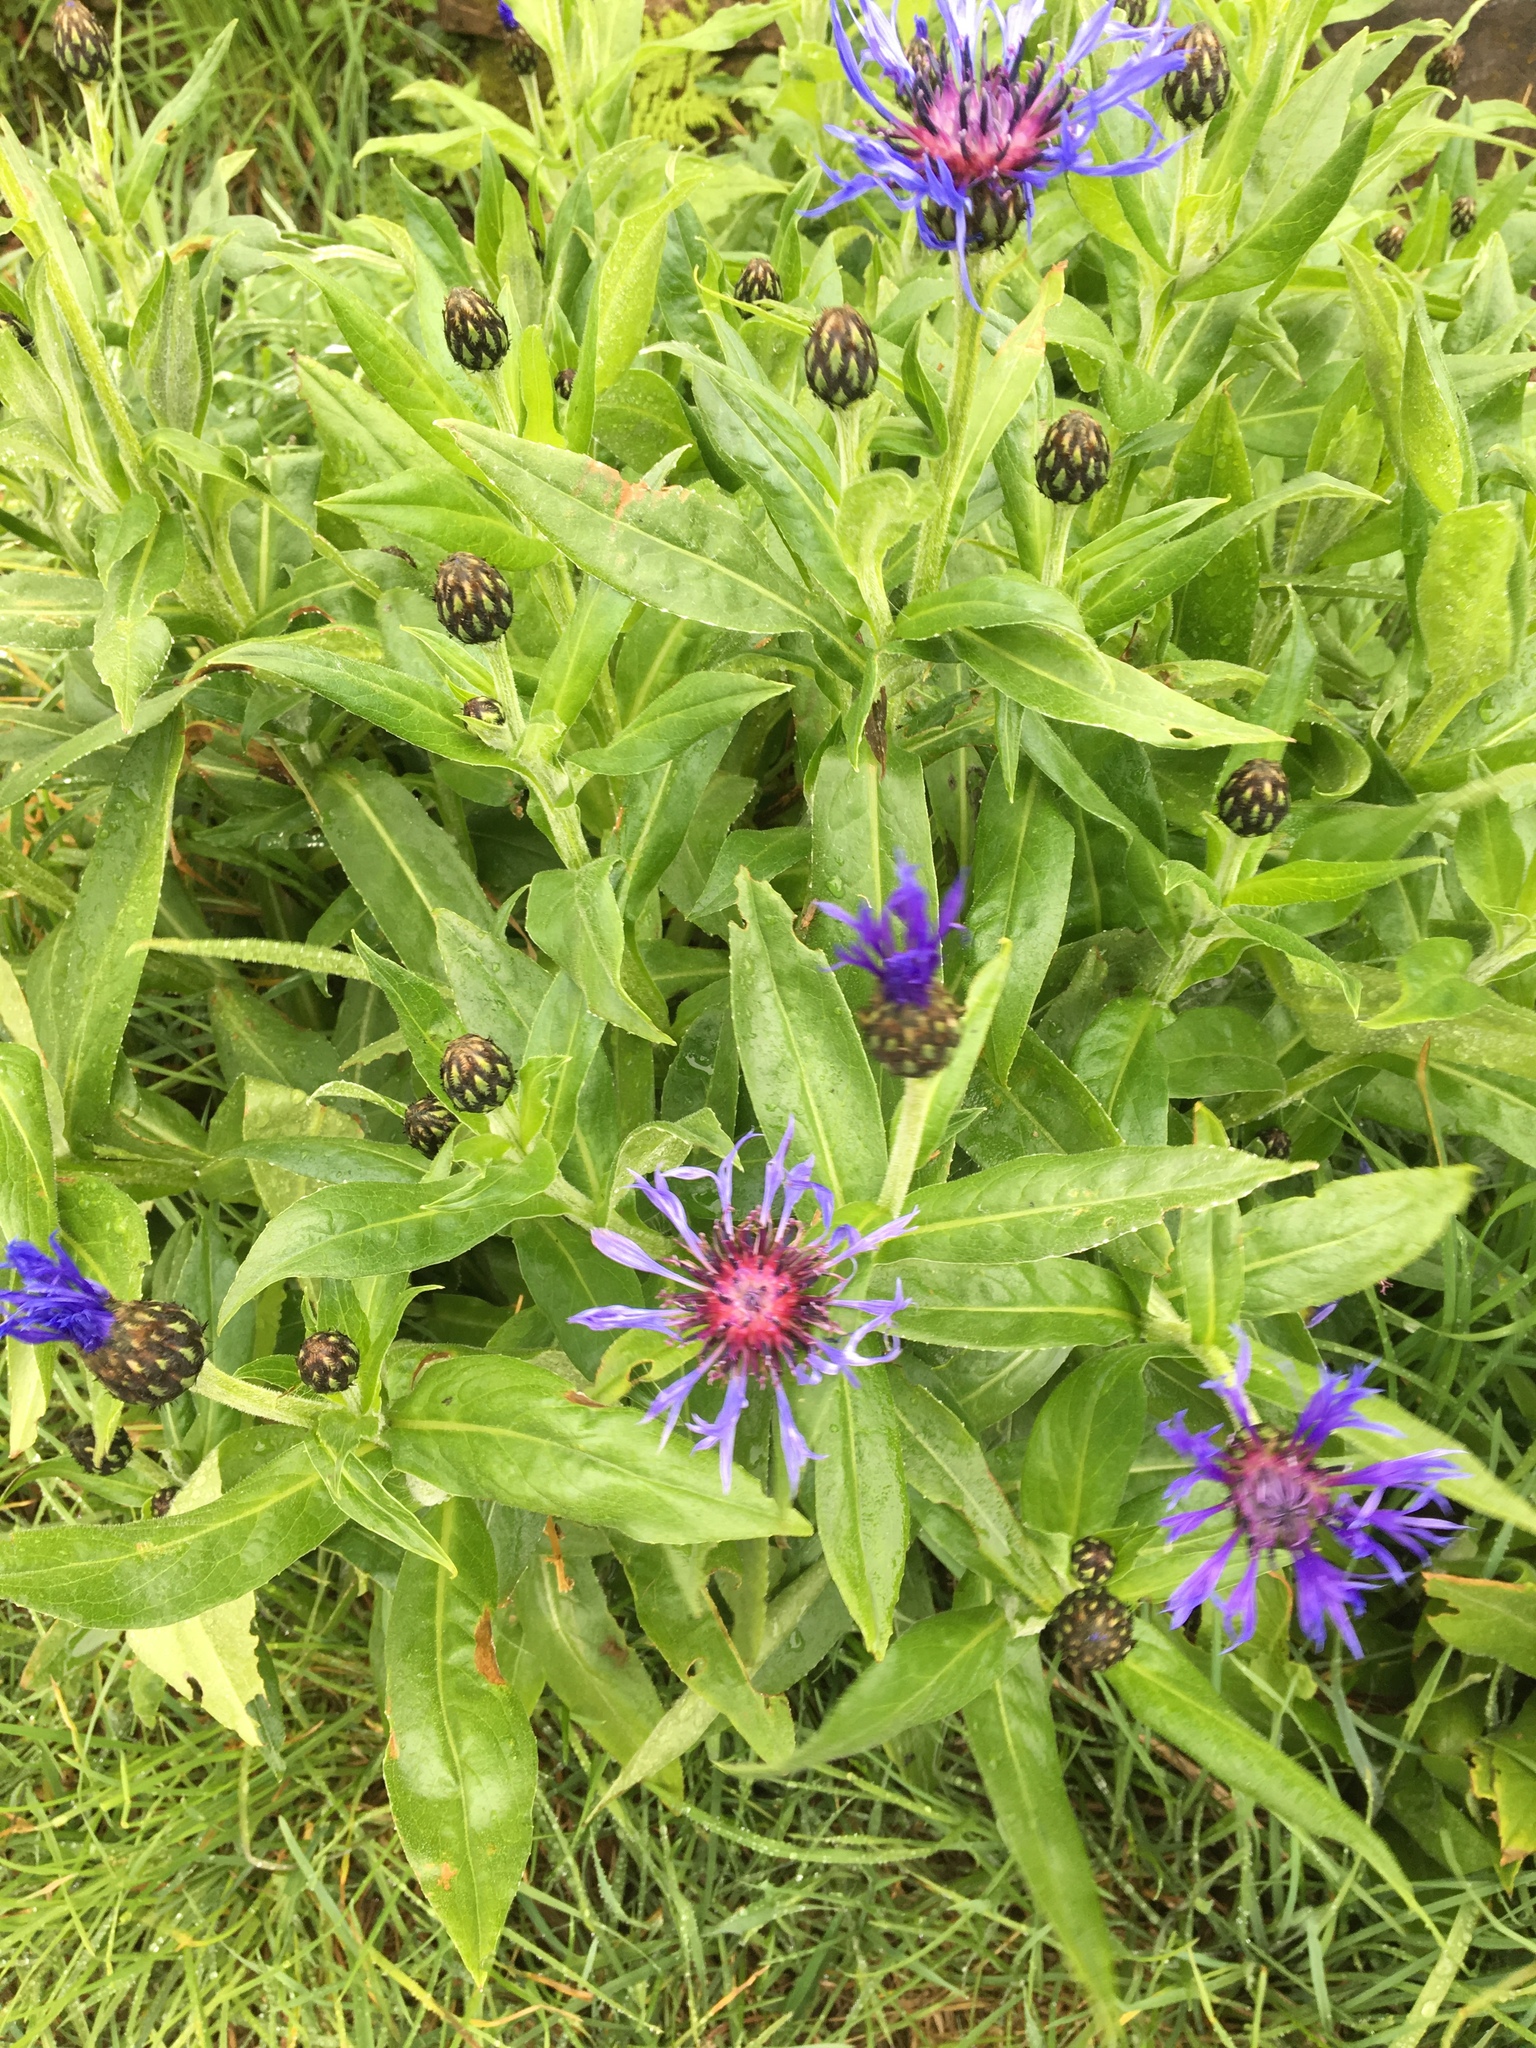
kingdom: Plantae
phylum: Tracheophyta
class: Magnoliopsida
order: Asterales
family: Asteraceae
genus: Centaurea
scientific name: Centaurea montana
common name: Perennial cornflower
